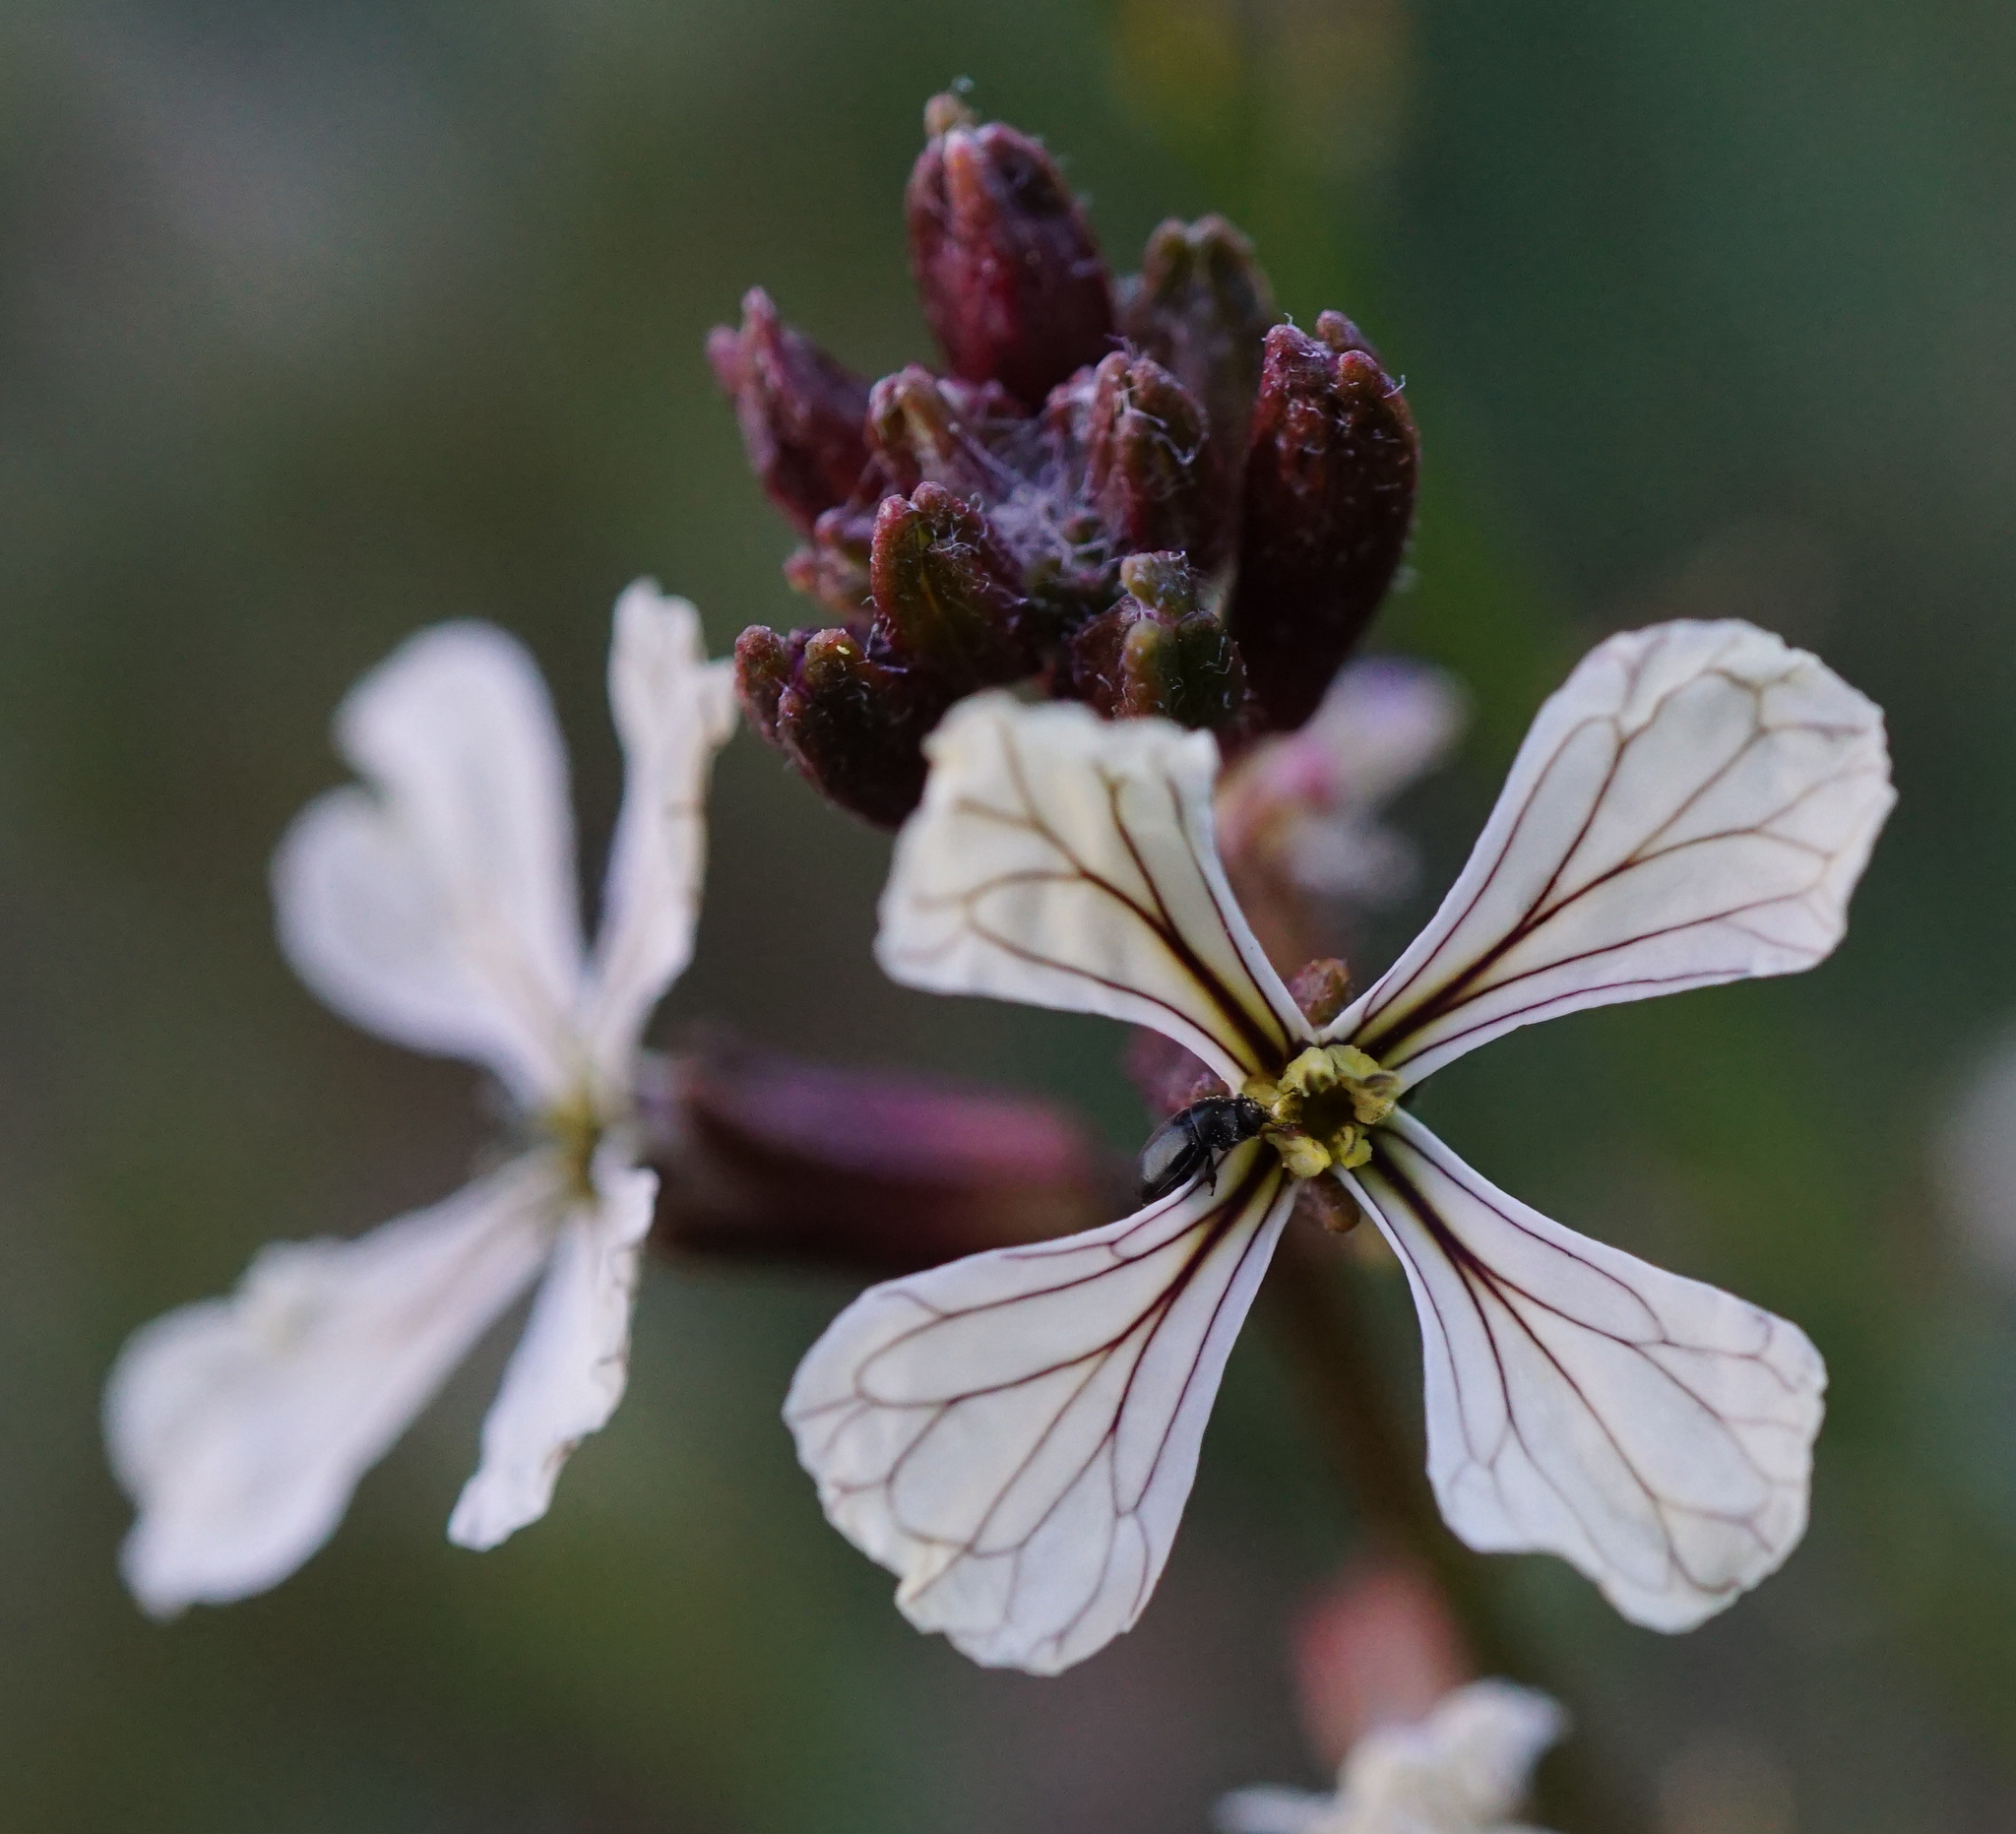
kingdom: Plantae
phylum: Tracheophyta
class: Magnoliopsida
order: Brassicales
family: Brassicaceae
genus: Eruca
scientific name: Eruca vesicaria
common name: Garden rocket
